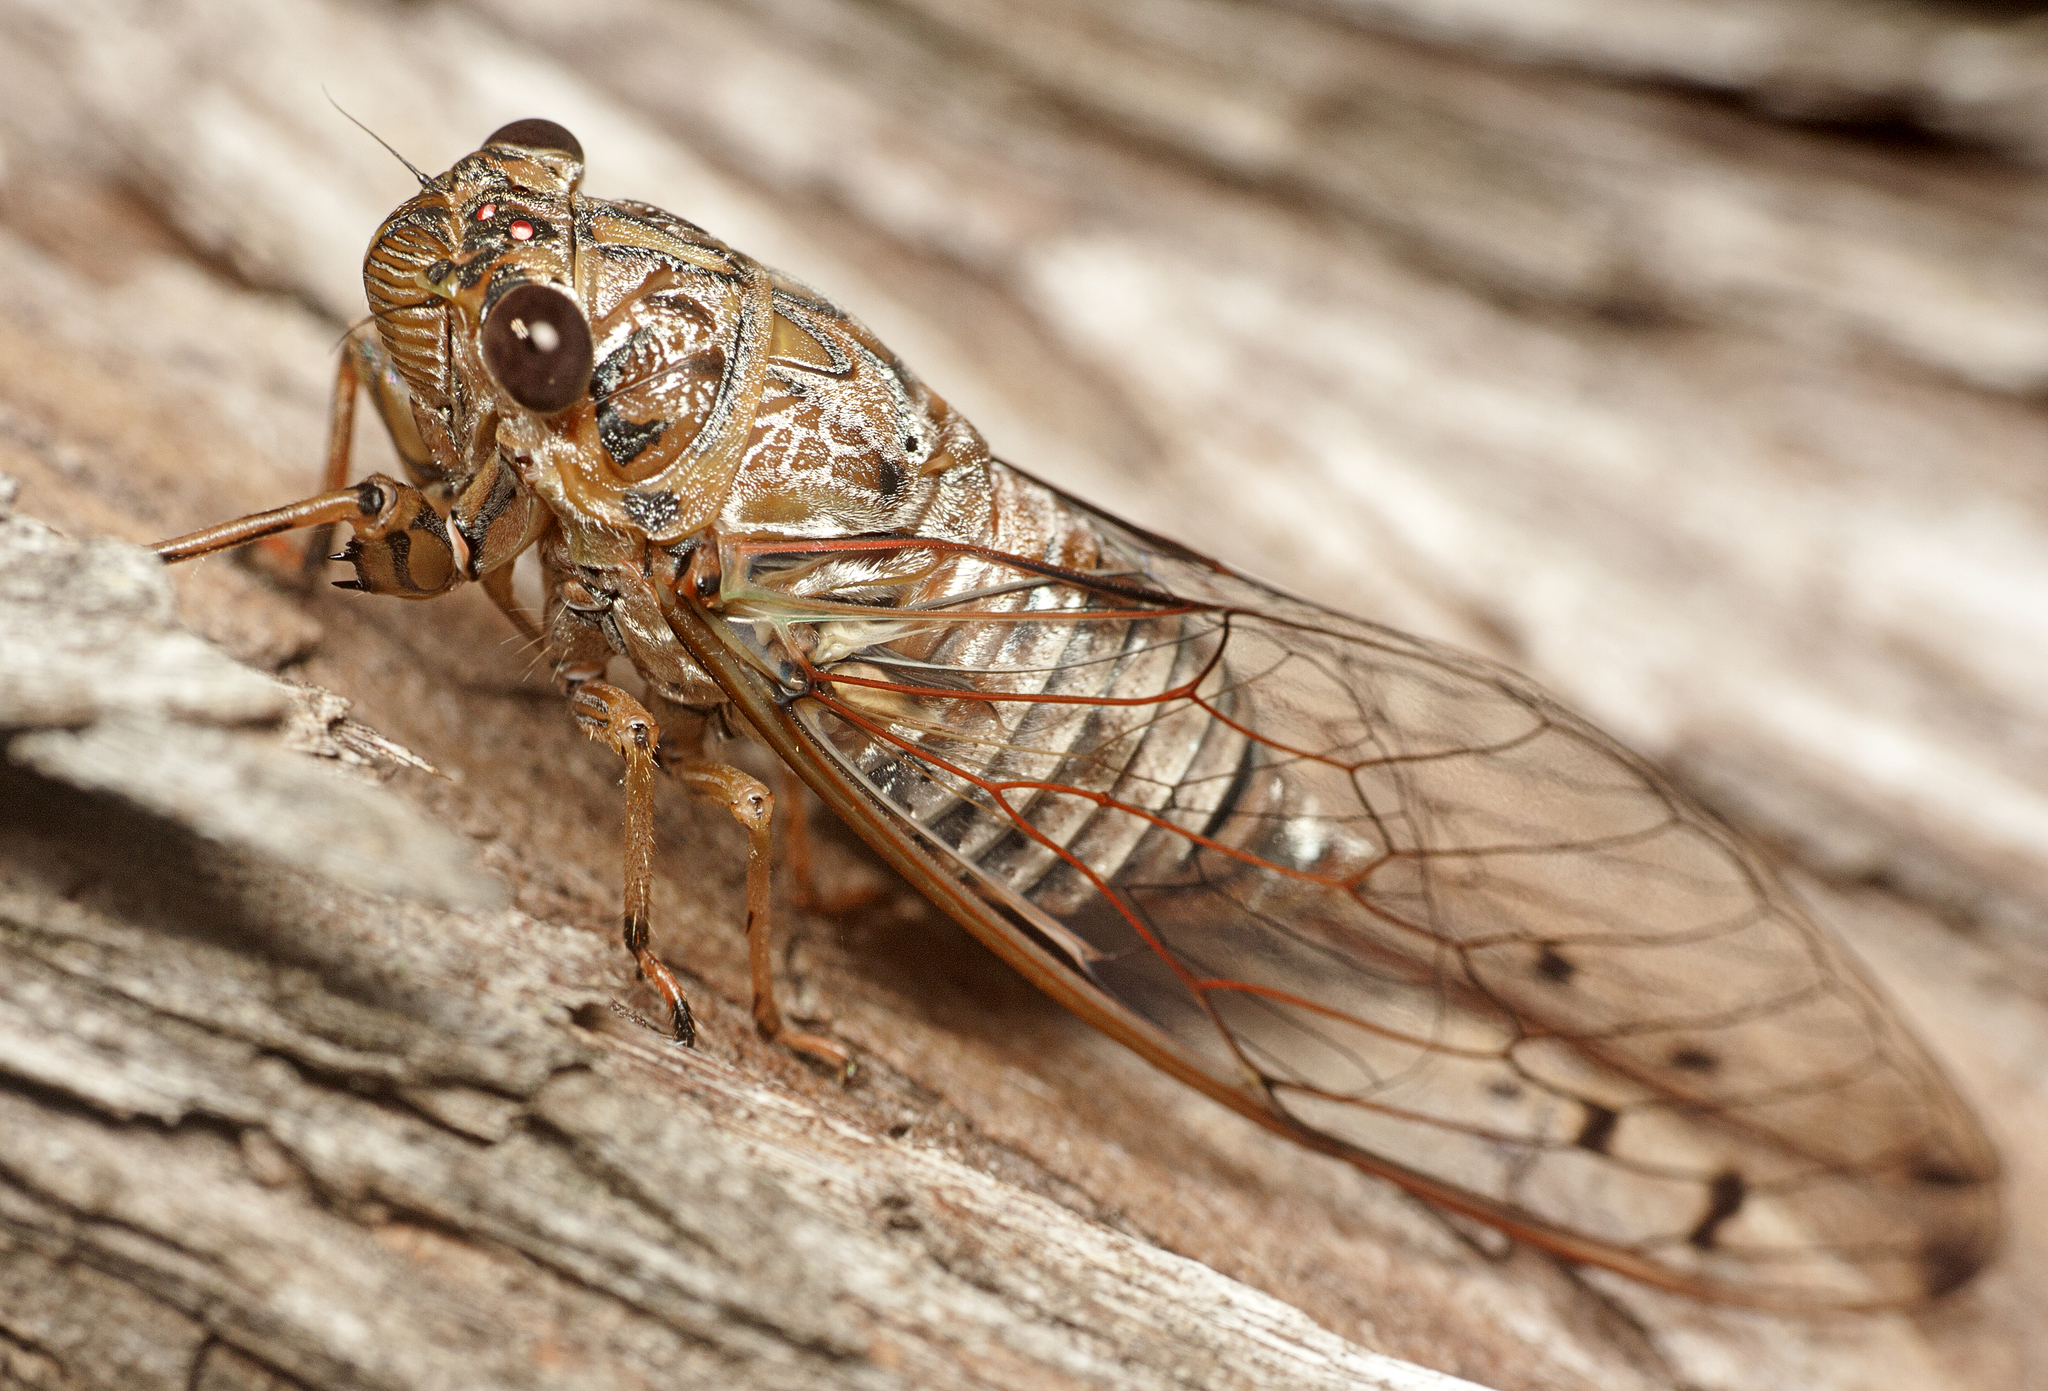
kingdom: Animalia
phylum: Arthropoda
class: Insecta
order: Hemiptera
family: Cicadidae
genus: Tamasa
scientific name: Tamasa tristigma
